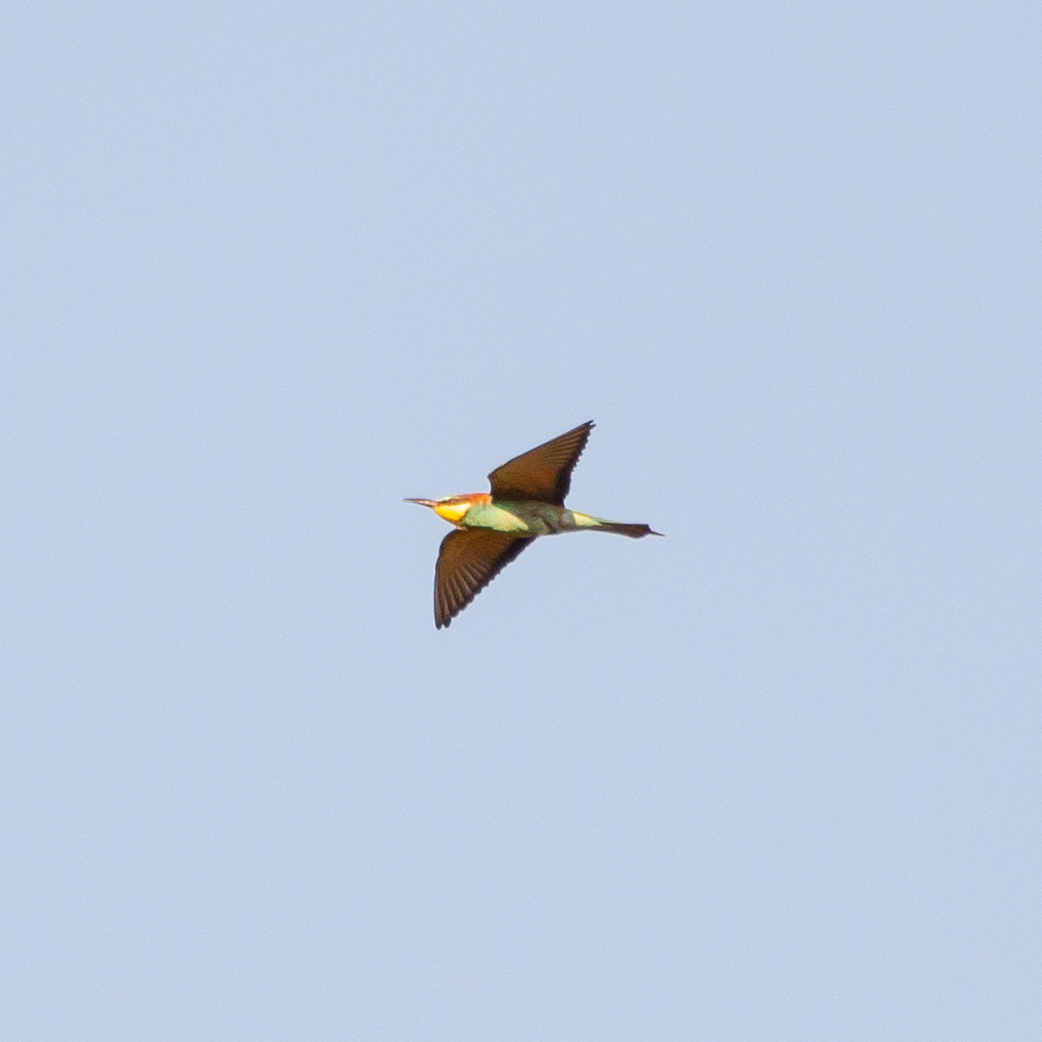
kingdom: Animalia
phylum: Chordata
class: Aves
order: Coraciiformes
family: Meropidae
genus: Merops
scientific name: Merops apiaster
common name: European bee-eater
